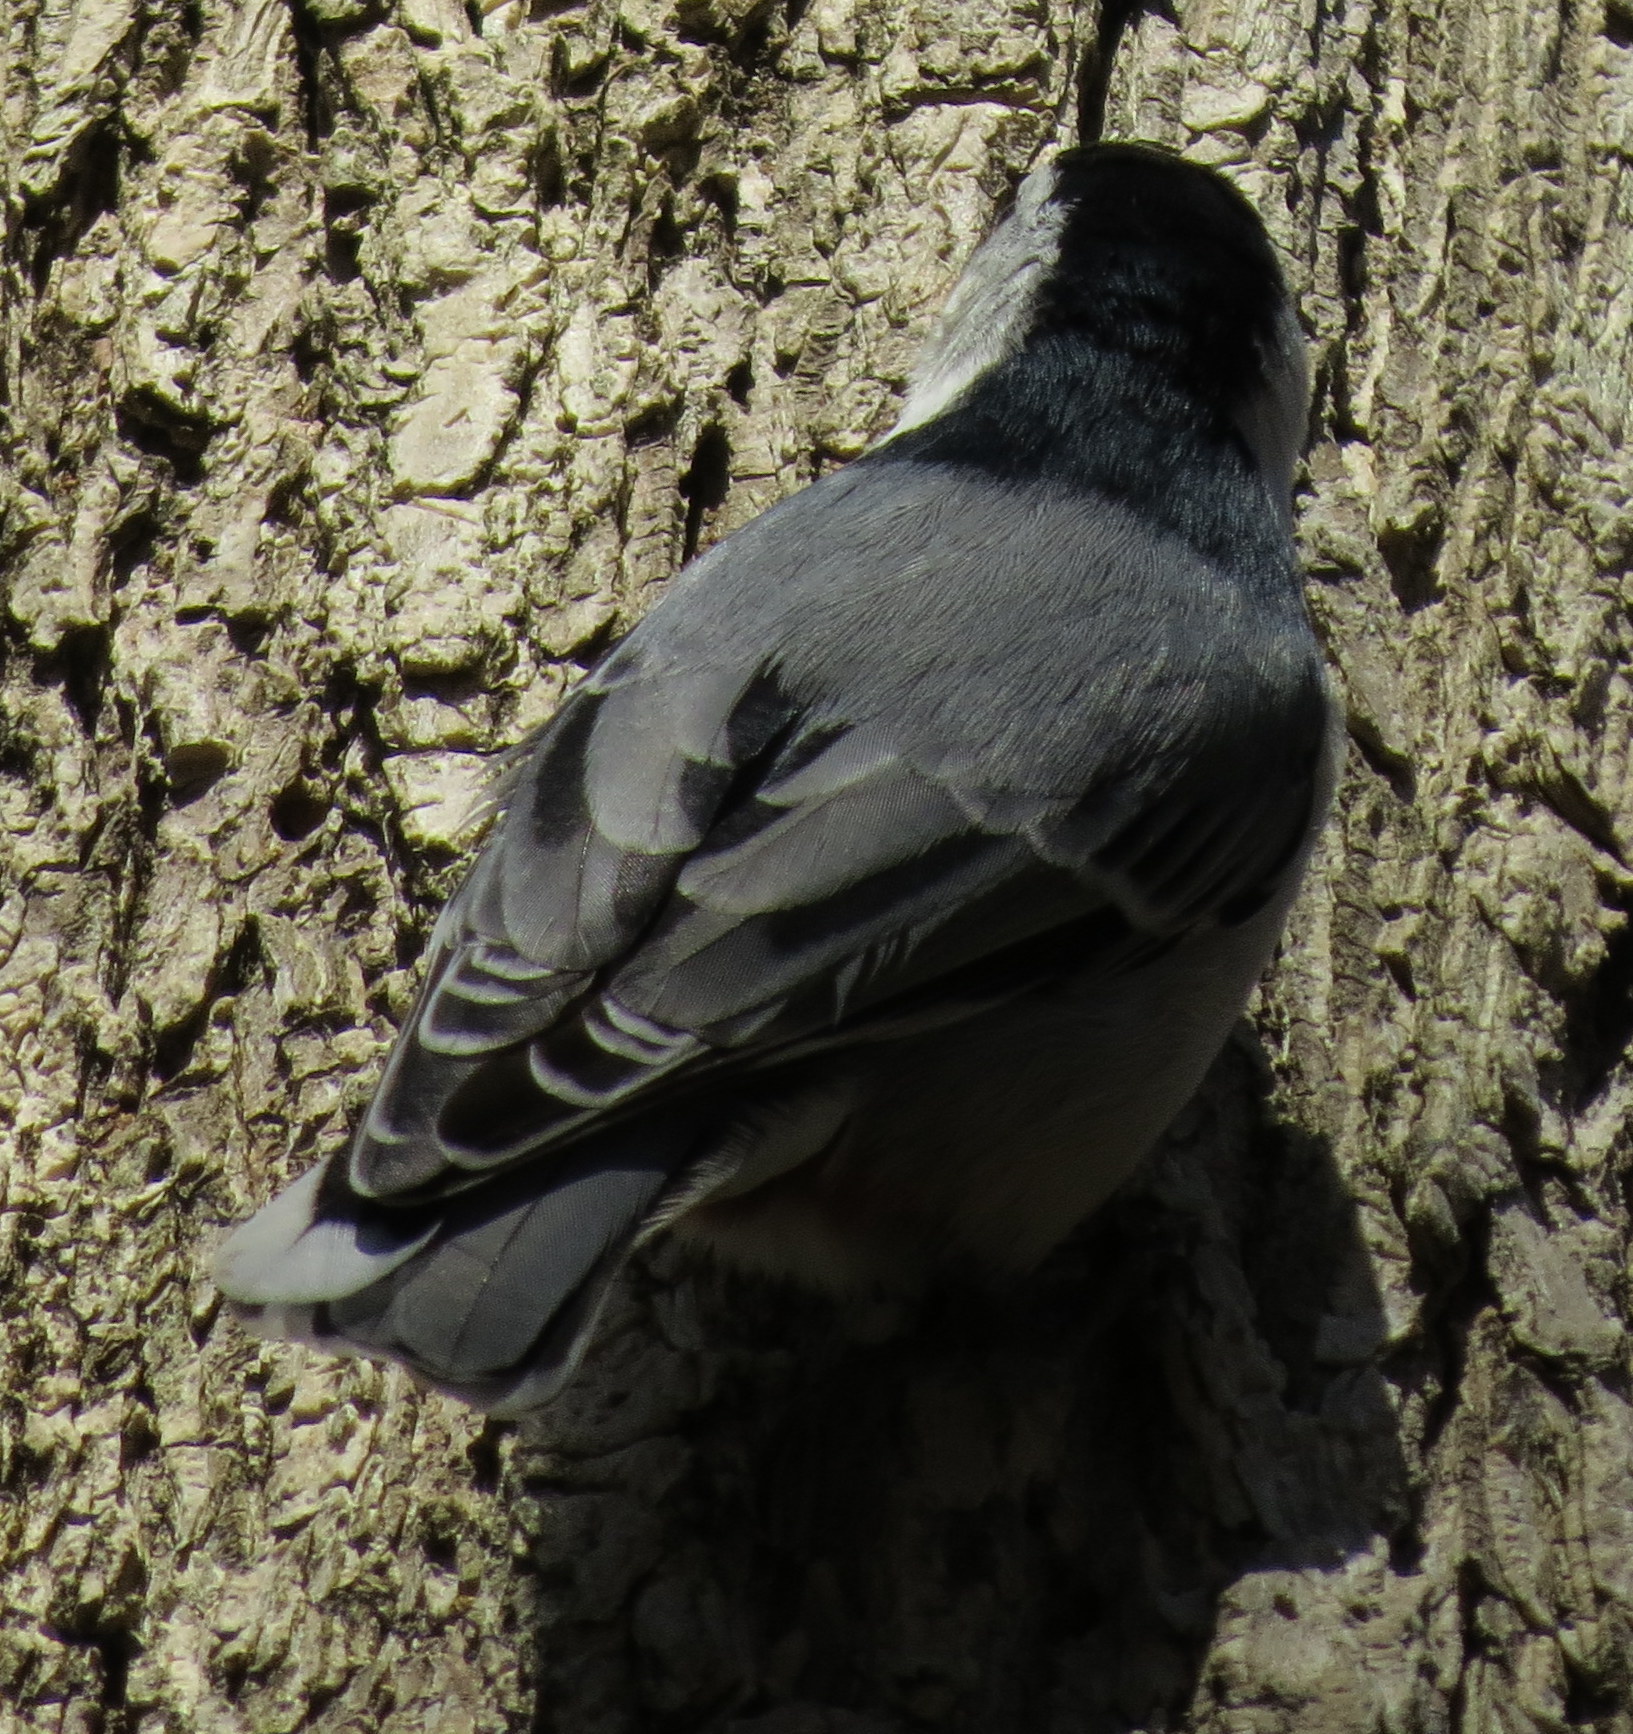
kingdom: Animalia
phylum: Chordata
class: Aves
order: Passeriformes
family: Sittidae
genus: Sitta
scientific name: Sitta carolinensis
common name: White-breasted nuthatch
